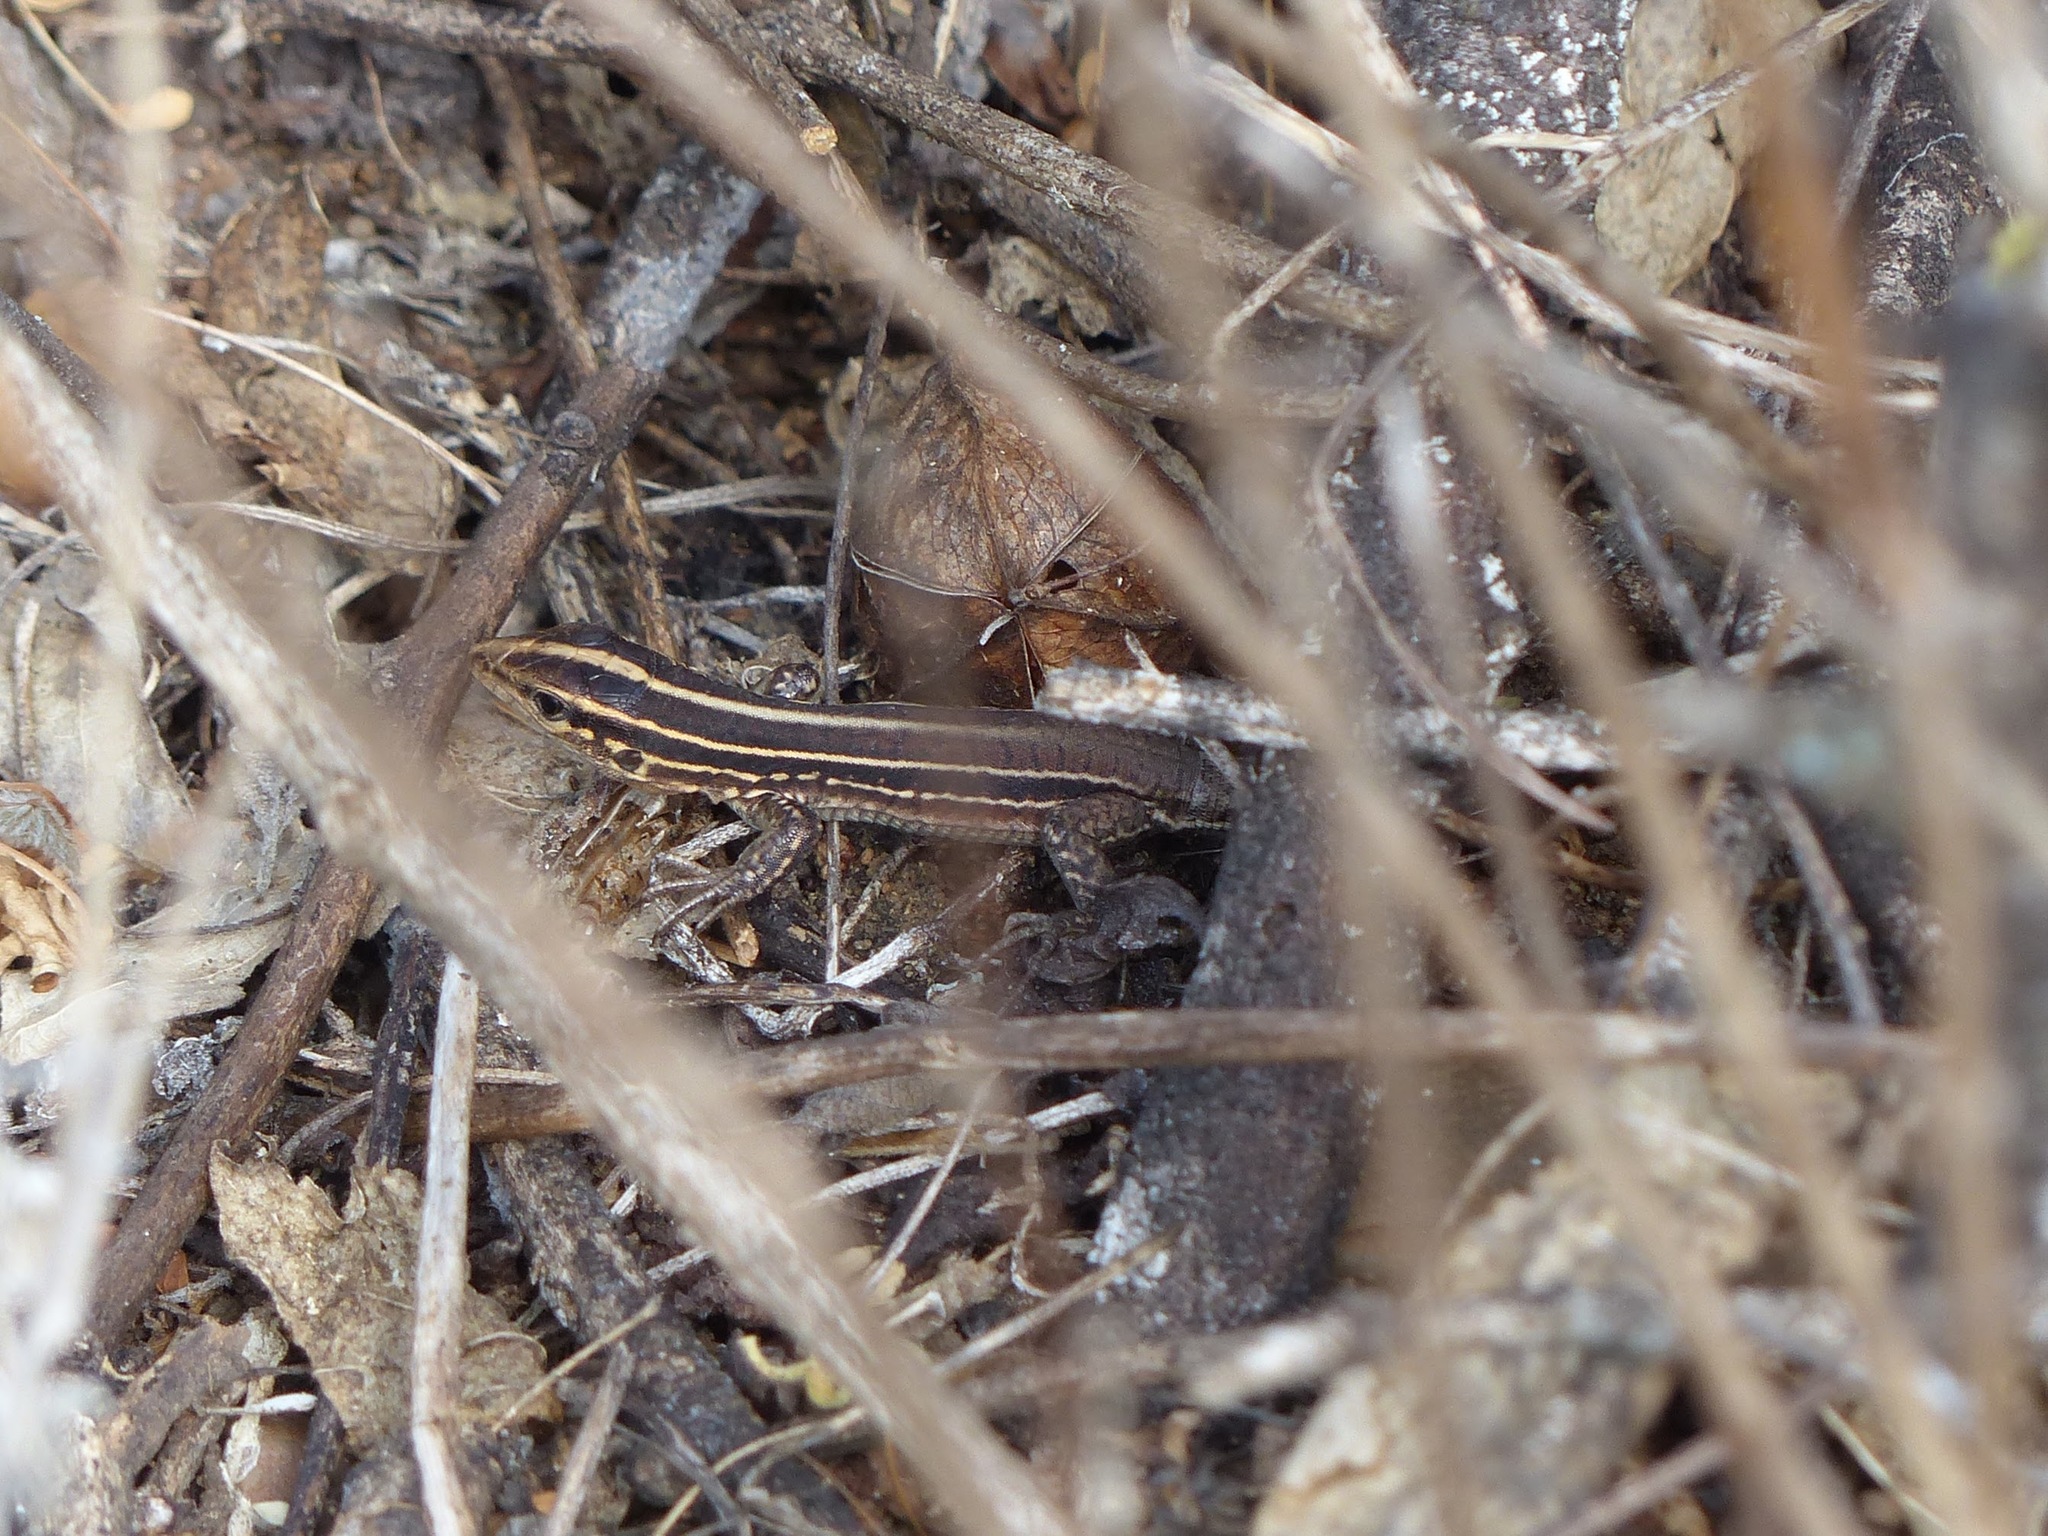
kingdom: Animalia
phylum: Chordata
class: Squamata
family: Teiidae
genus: Holcosus
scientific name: Holcosus septemlineatus
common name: Seven-lined ameiva
